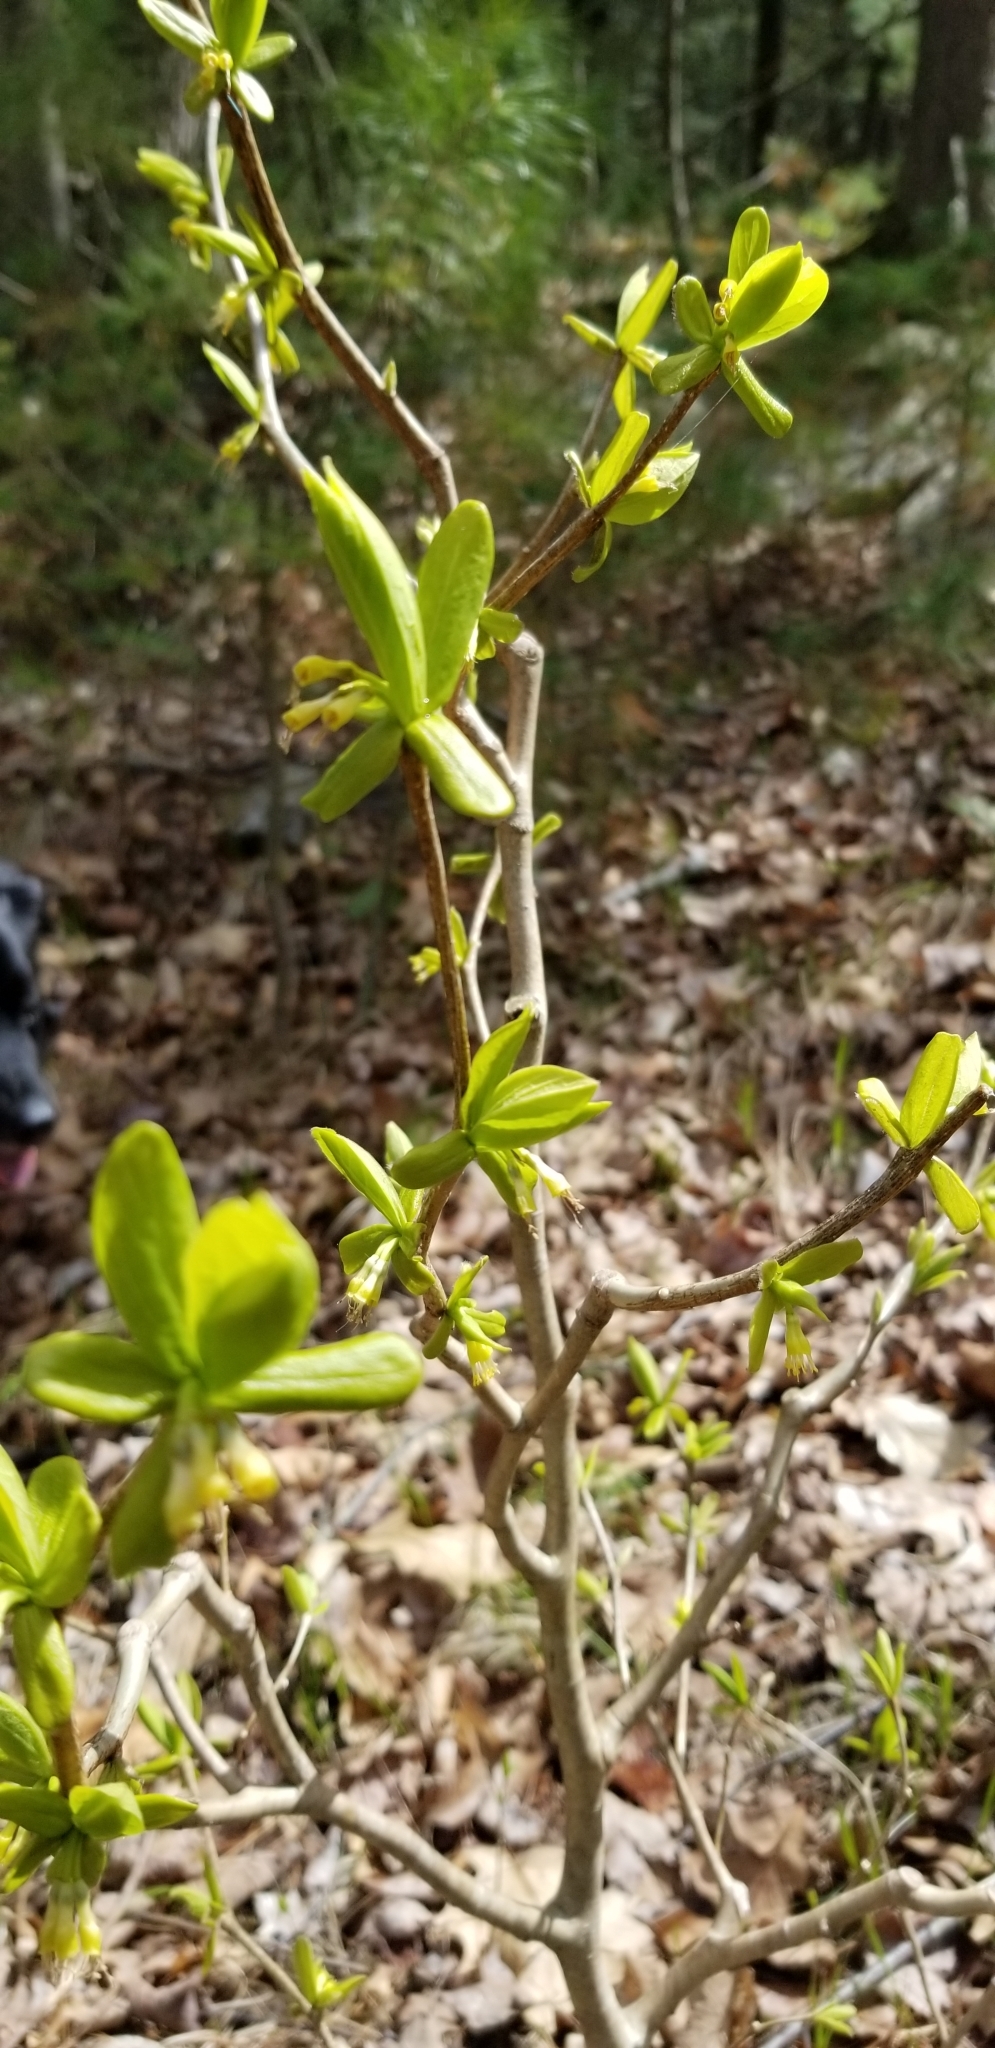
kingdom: Plantae
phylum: Tracheophyta
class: Magnoliopsida
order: Malvales
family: Thymelaeaceae
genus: Dirca
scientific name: Dirca palustris
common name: Leatherwood
